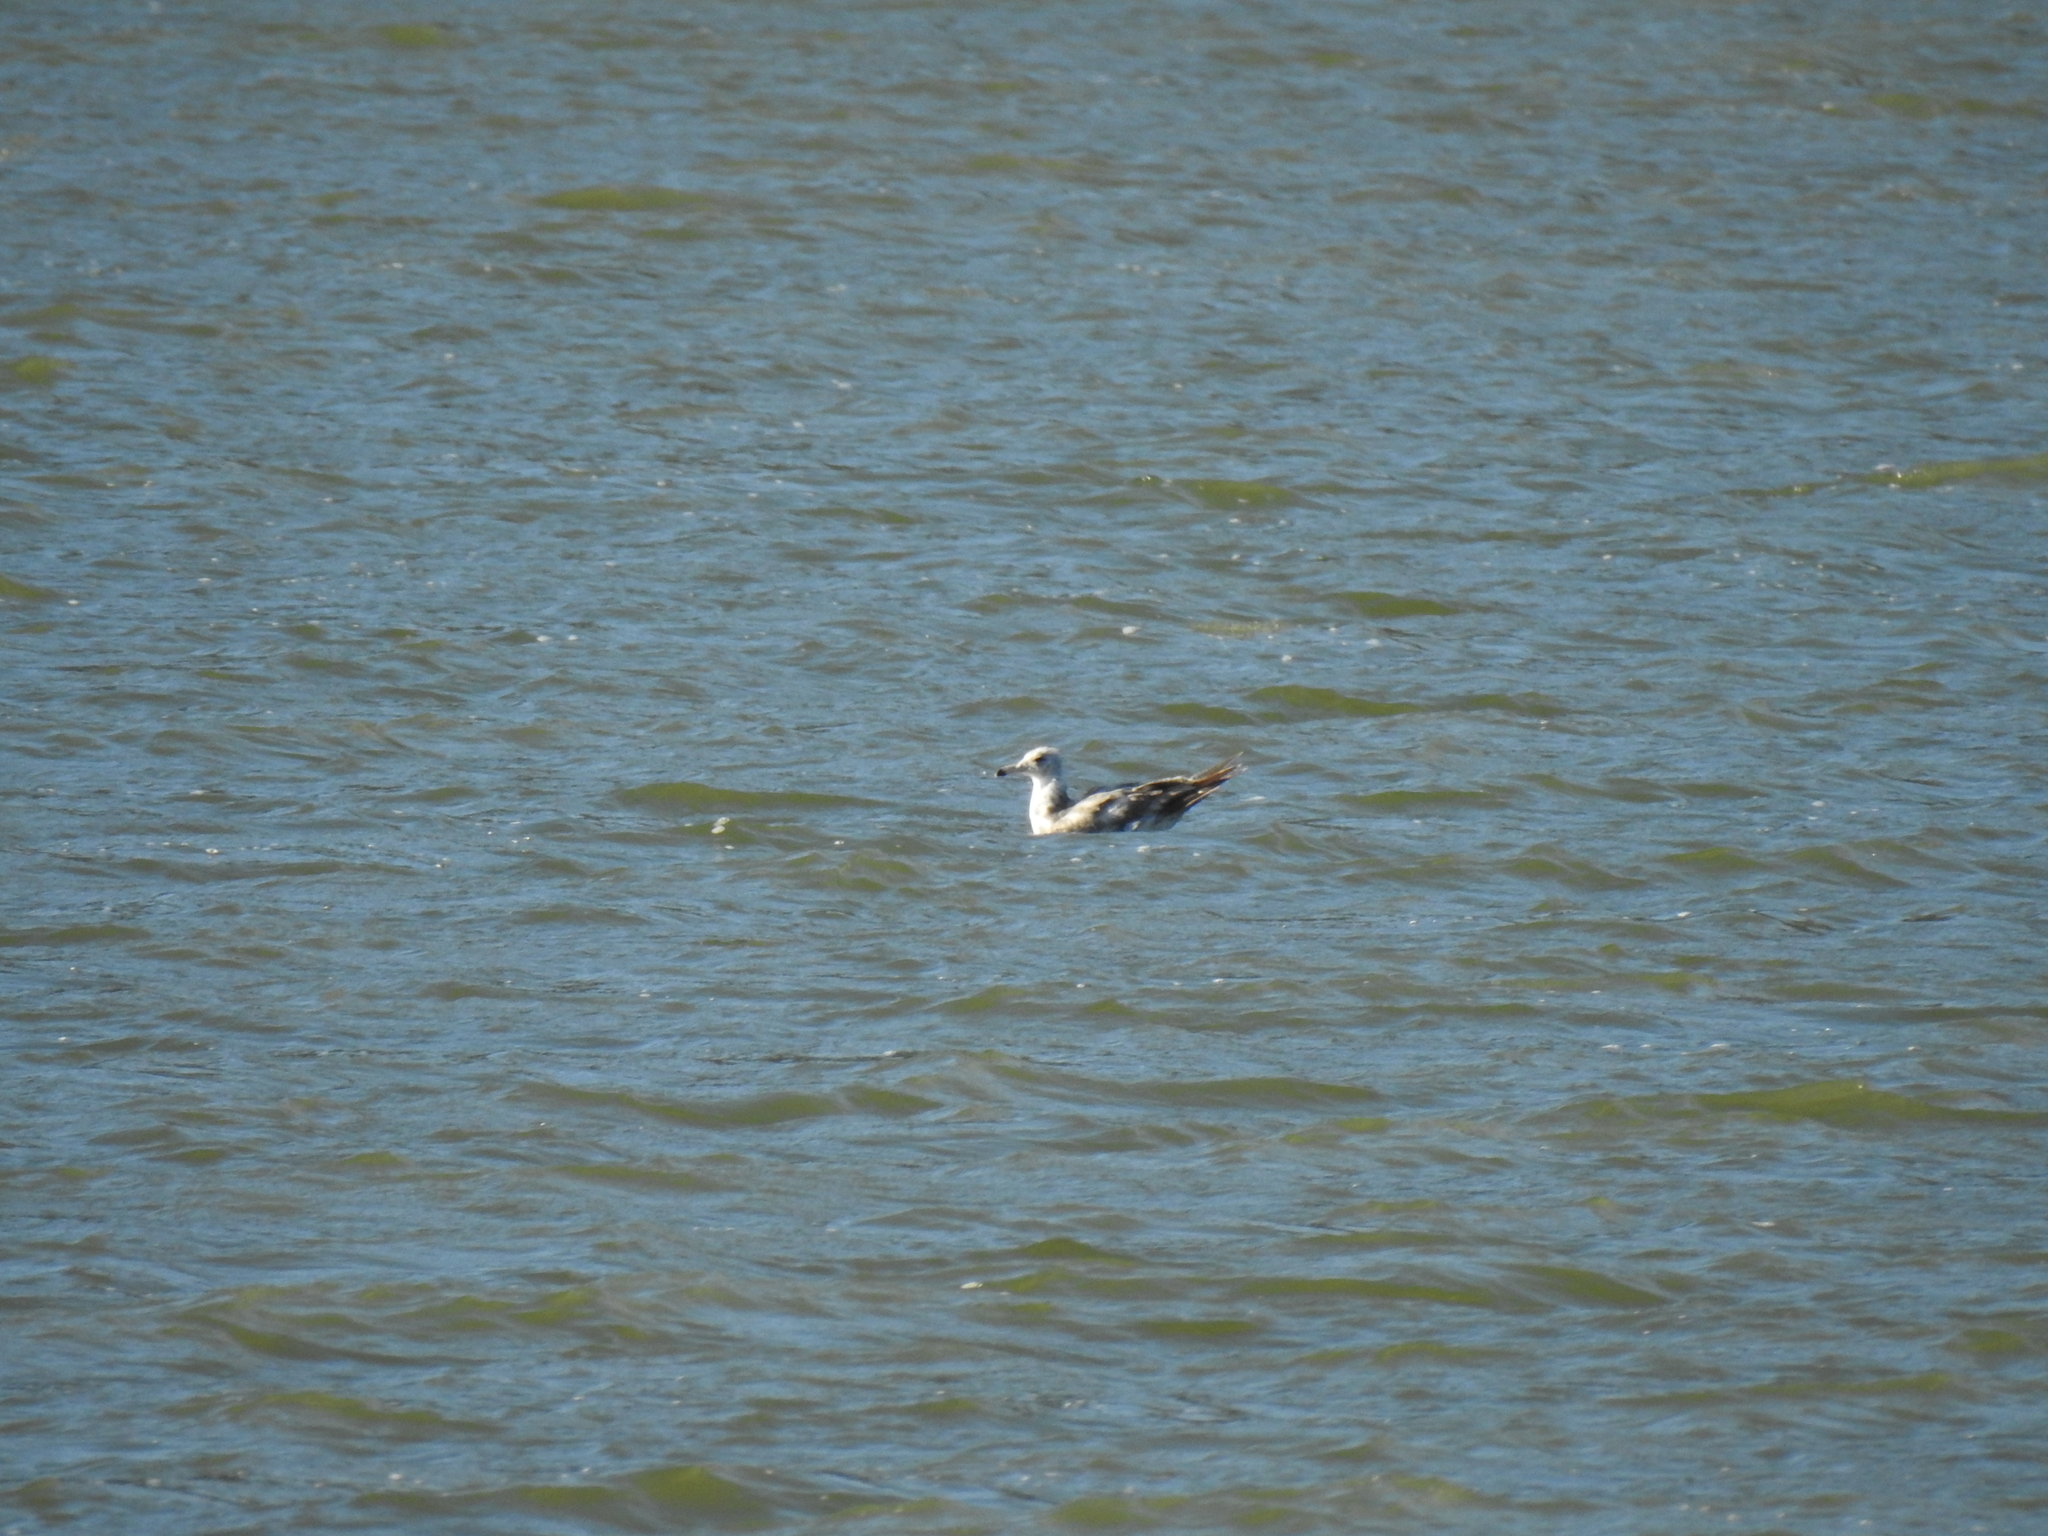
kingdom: Animalia
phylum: Chordata
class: Aves
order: Charadriiformes
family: Laridae
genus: Larus
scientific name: Larus californicus
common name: California gull
